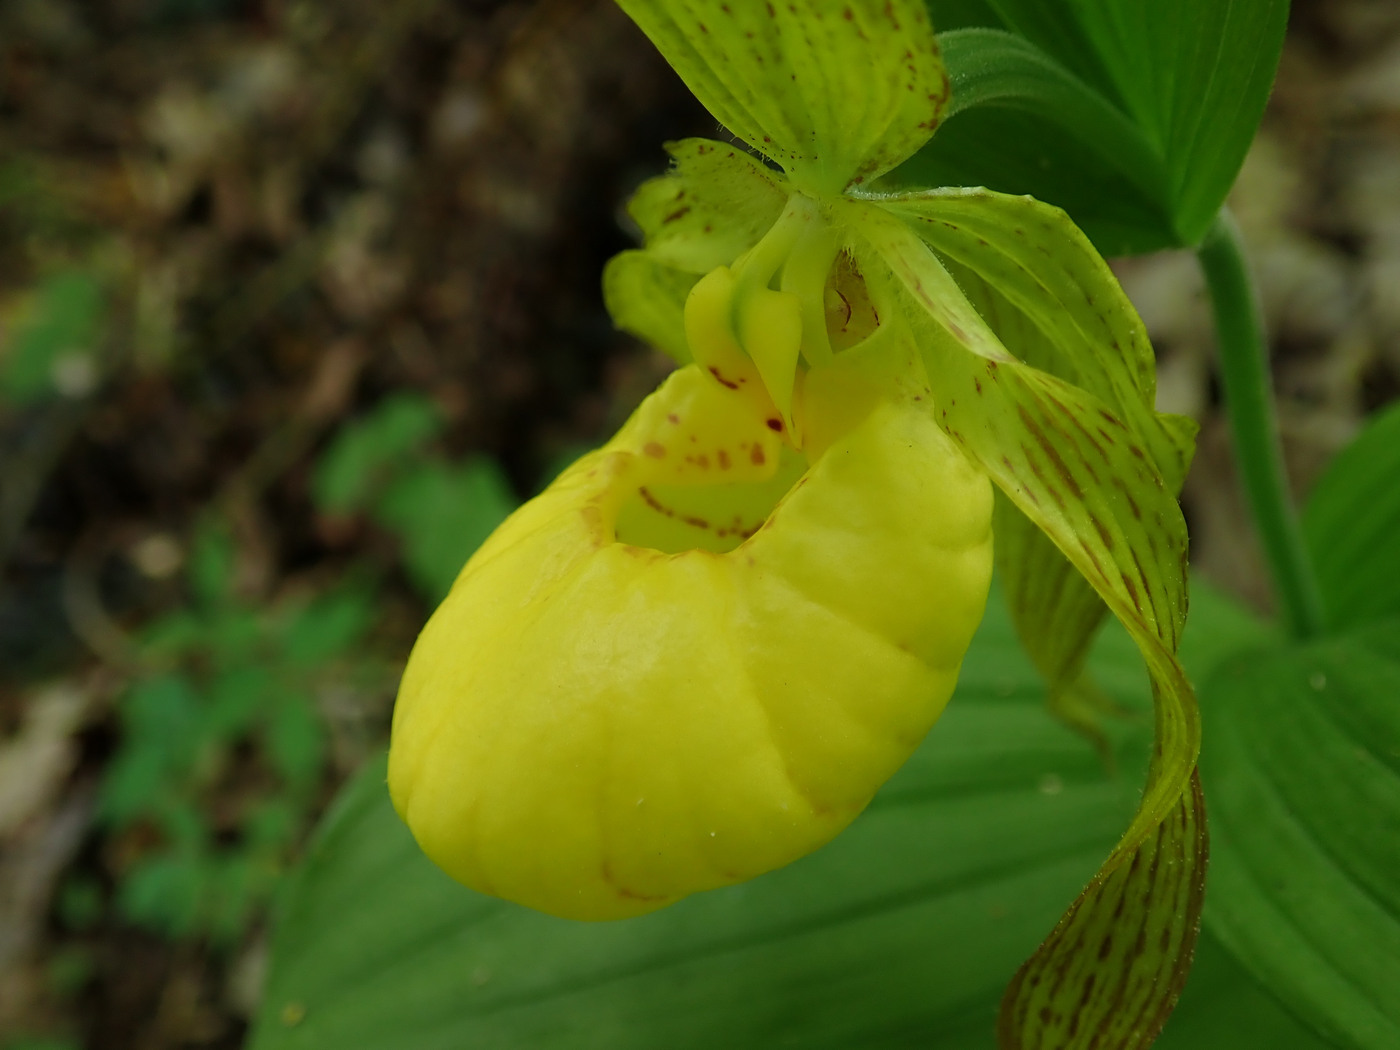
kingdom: Plantae
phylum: Tracheophyta
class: Liliopsida
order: Asparagales
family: Orchidaceae
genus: Cypripedium
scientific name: Cypripedium parviflorum
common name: American yellow lady's-slipper
